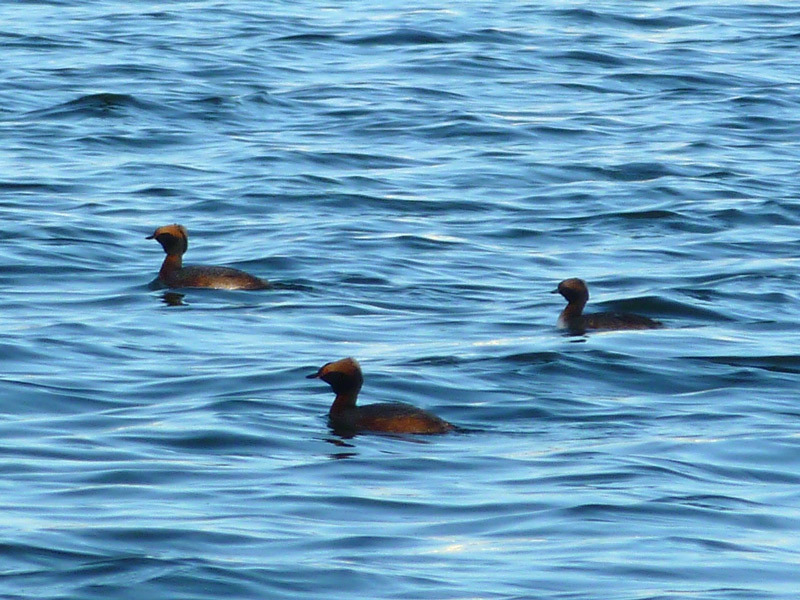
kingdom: Animalia
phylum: Chordata
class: Aves
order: Podicipediformes
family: Podicipedidae
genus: Podiceps
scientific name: Podiceps auritus
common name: Horned grebe
